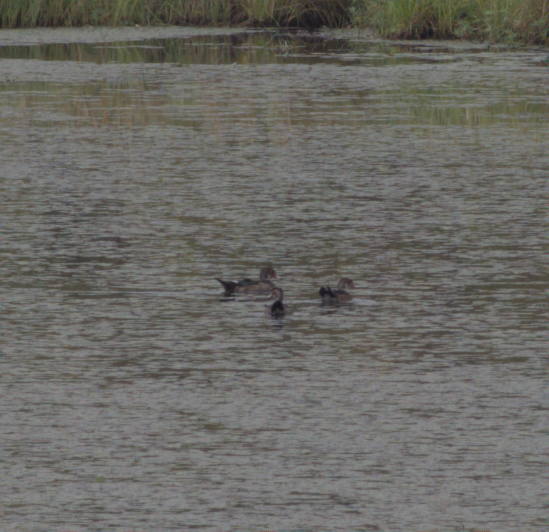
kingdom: Animalia
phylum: Chordata
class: Aves
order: Anseriformes
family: Anatidae
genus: Aix
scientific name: Aix sponsa
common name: Wood duck
